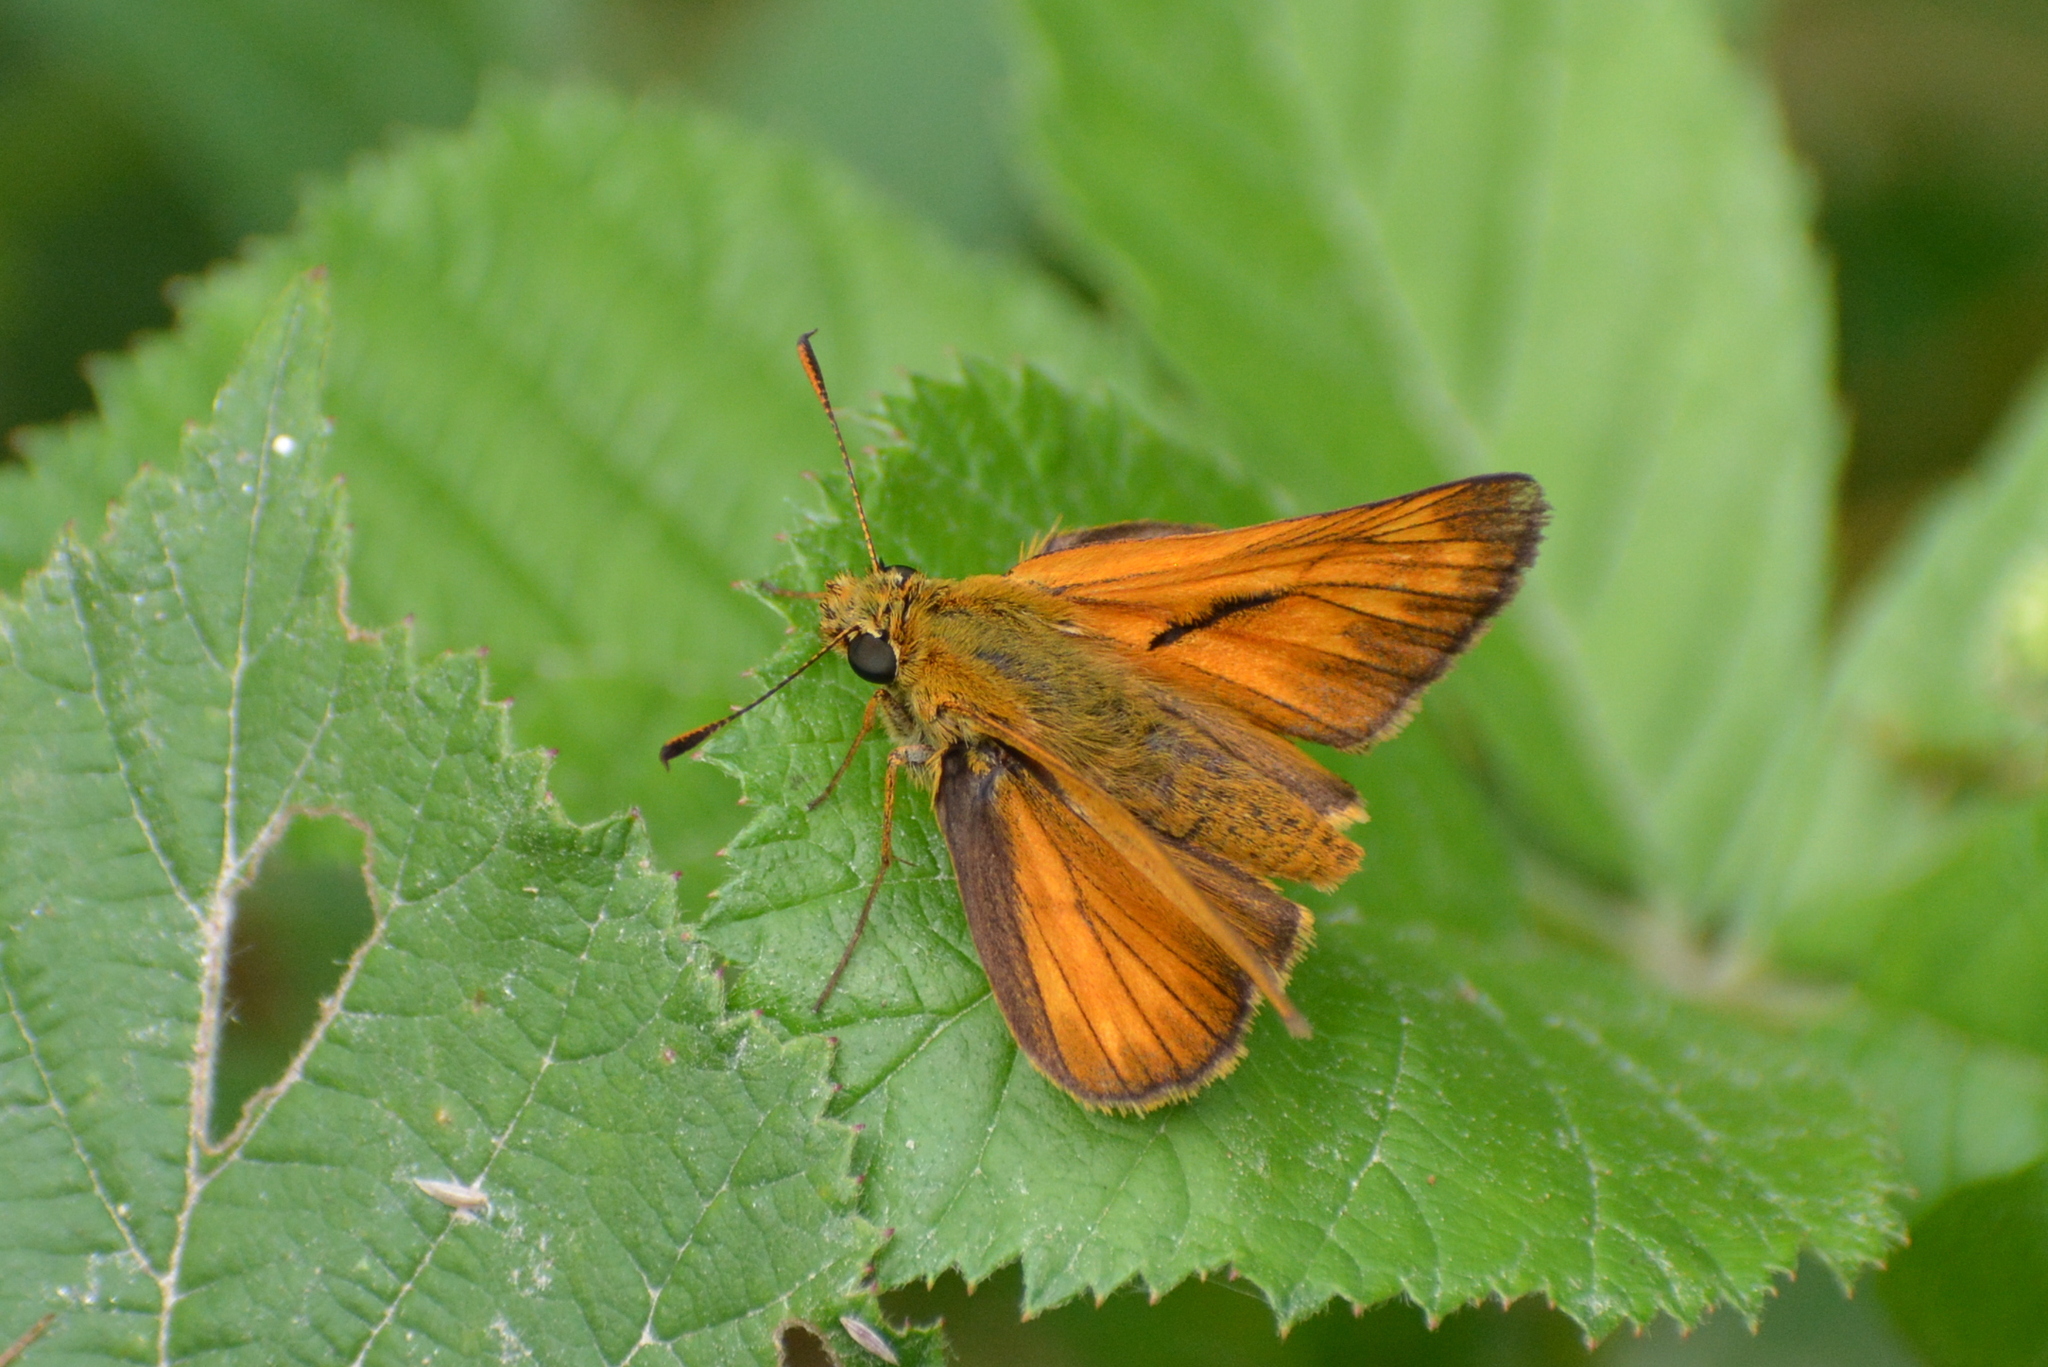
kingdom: Animalia
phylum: Arthropoda
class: Insecta
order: Lepidoptera
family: Hesperiidae
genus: Ochlodes
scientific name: Ochlodes venata
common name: Large skipper
